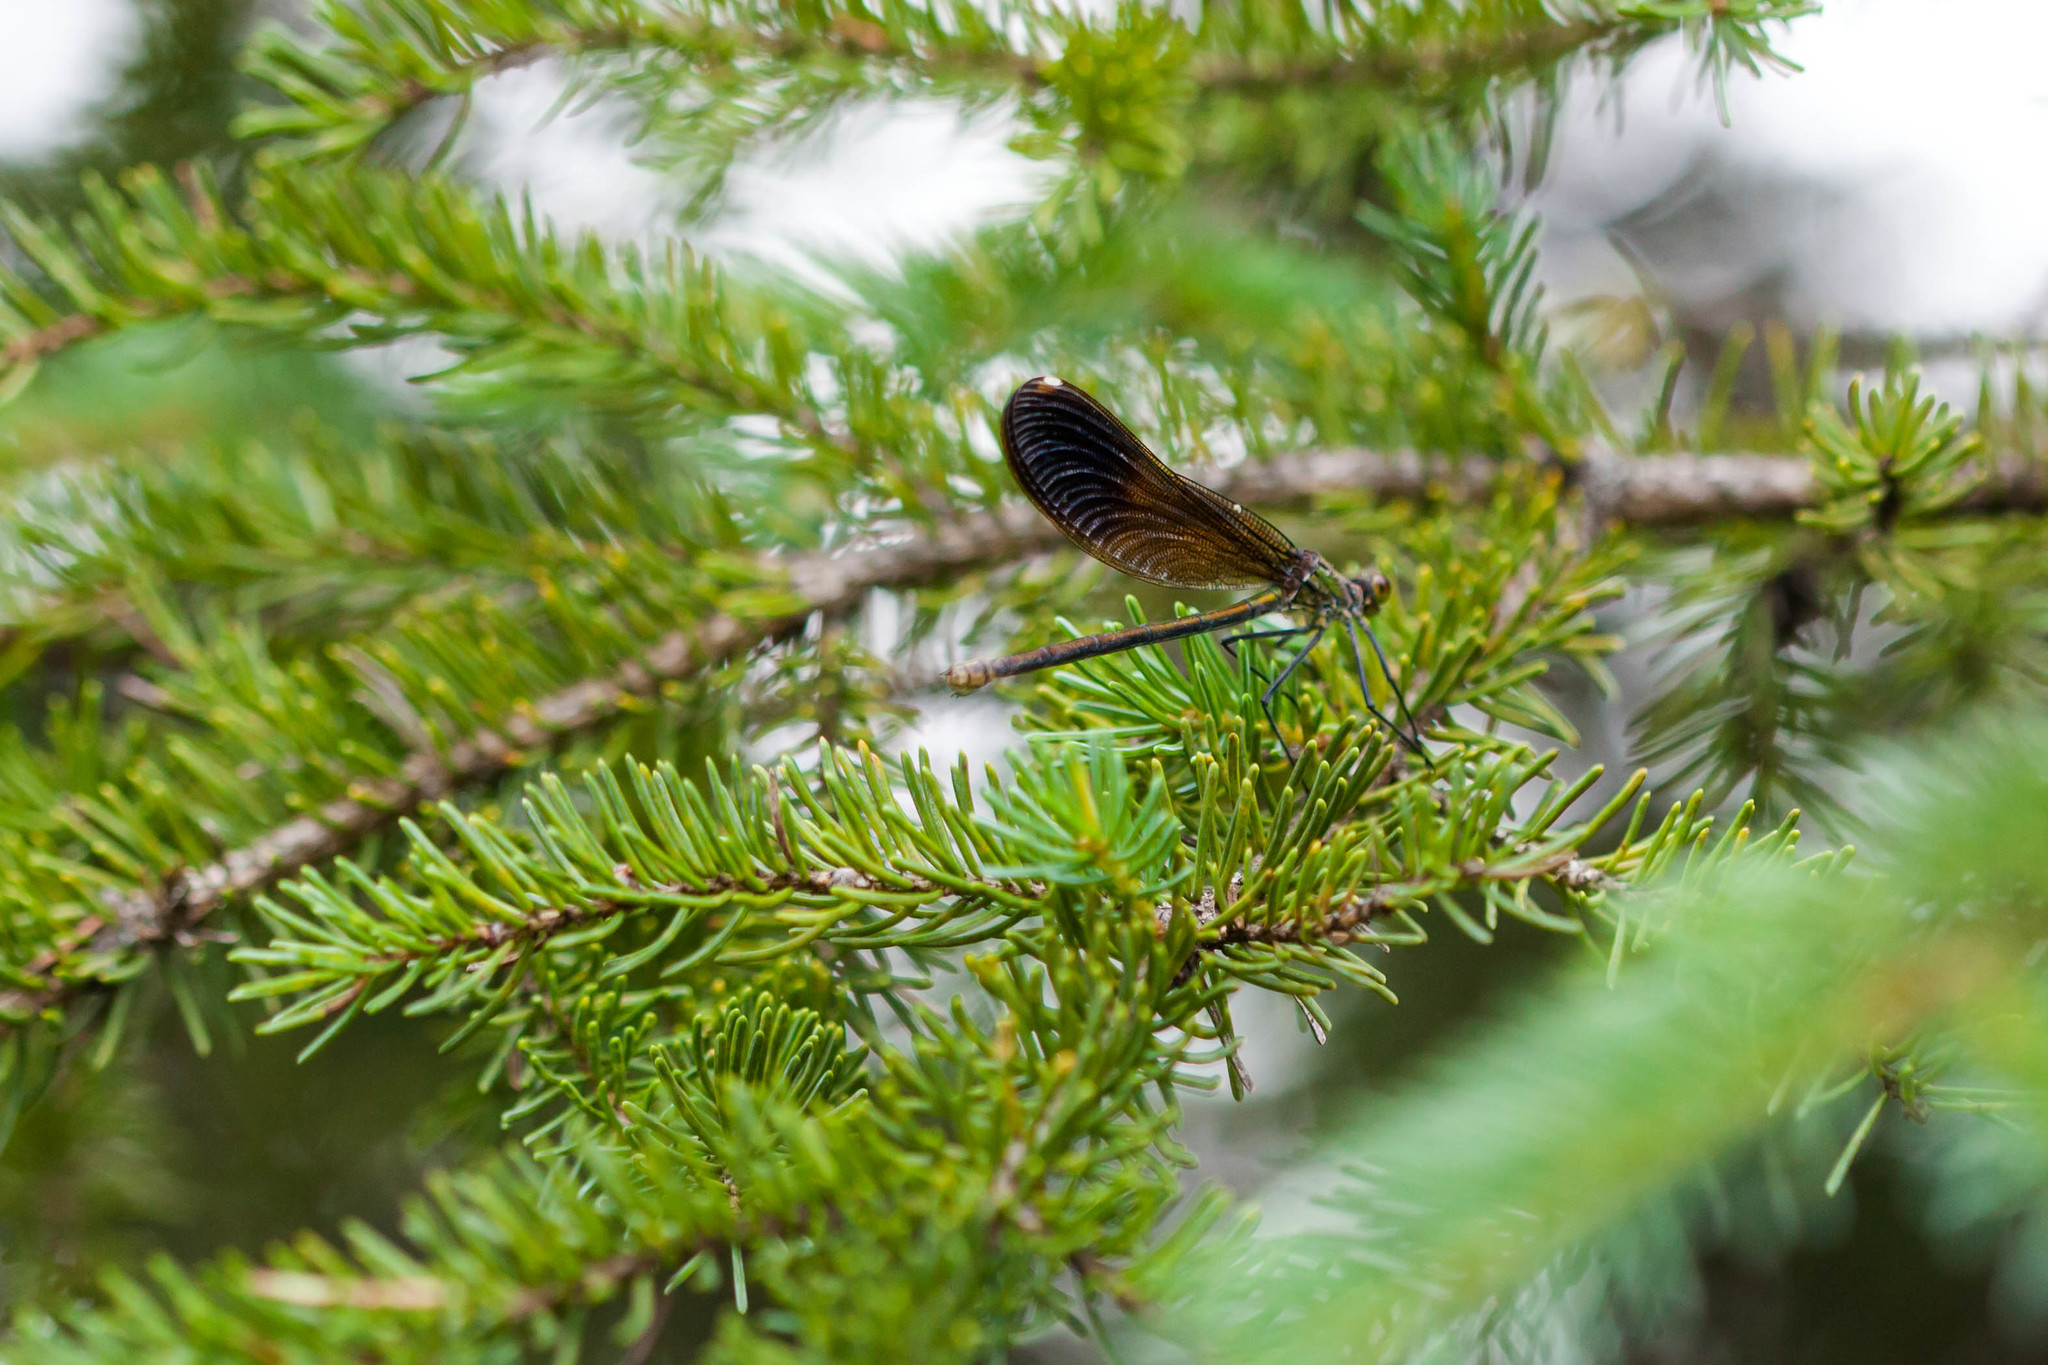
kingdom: Animalia
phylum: Arthropoda
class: Insecta
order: Odonata
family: Calopterygidae
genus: Calopteryx
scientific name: Calopteryx aequabilis
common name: River jewelwing
